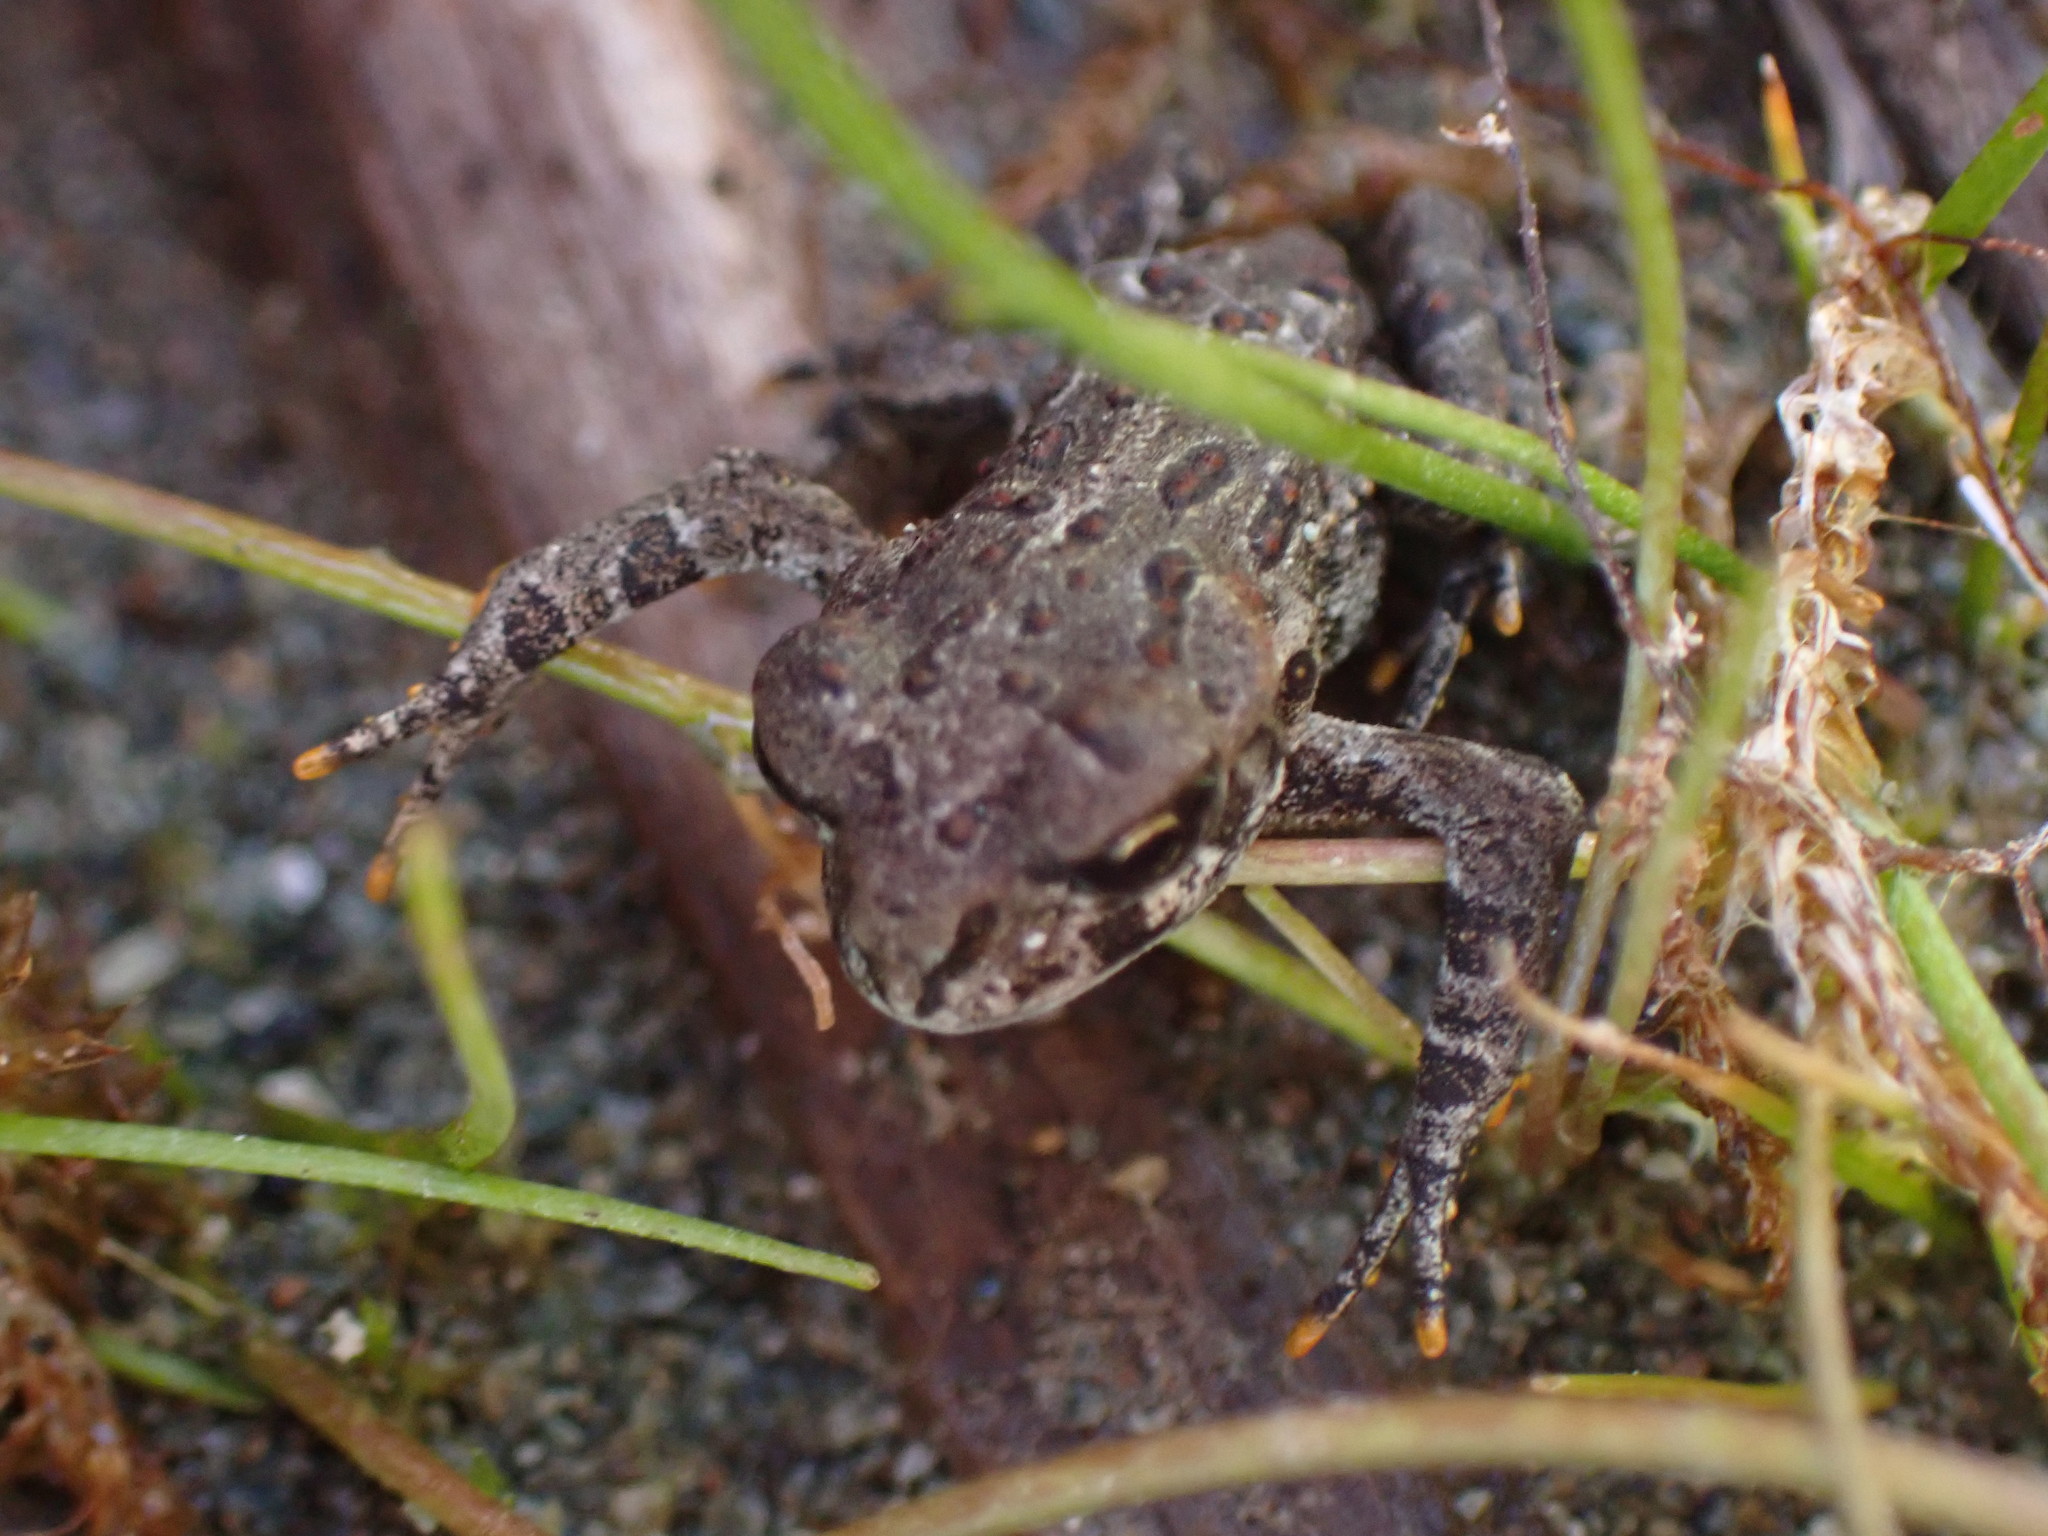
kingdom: Animalia
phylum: Chordata
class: Amphibia
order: Anura
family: Bufonidae
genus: Anaxyrus
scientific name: Anaxyrus boreas
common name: Western toad
